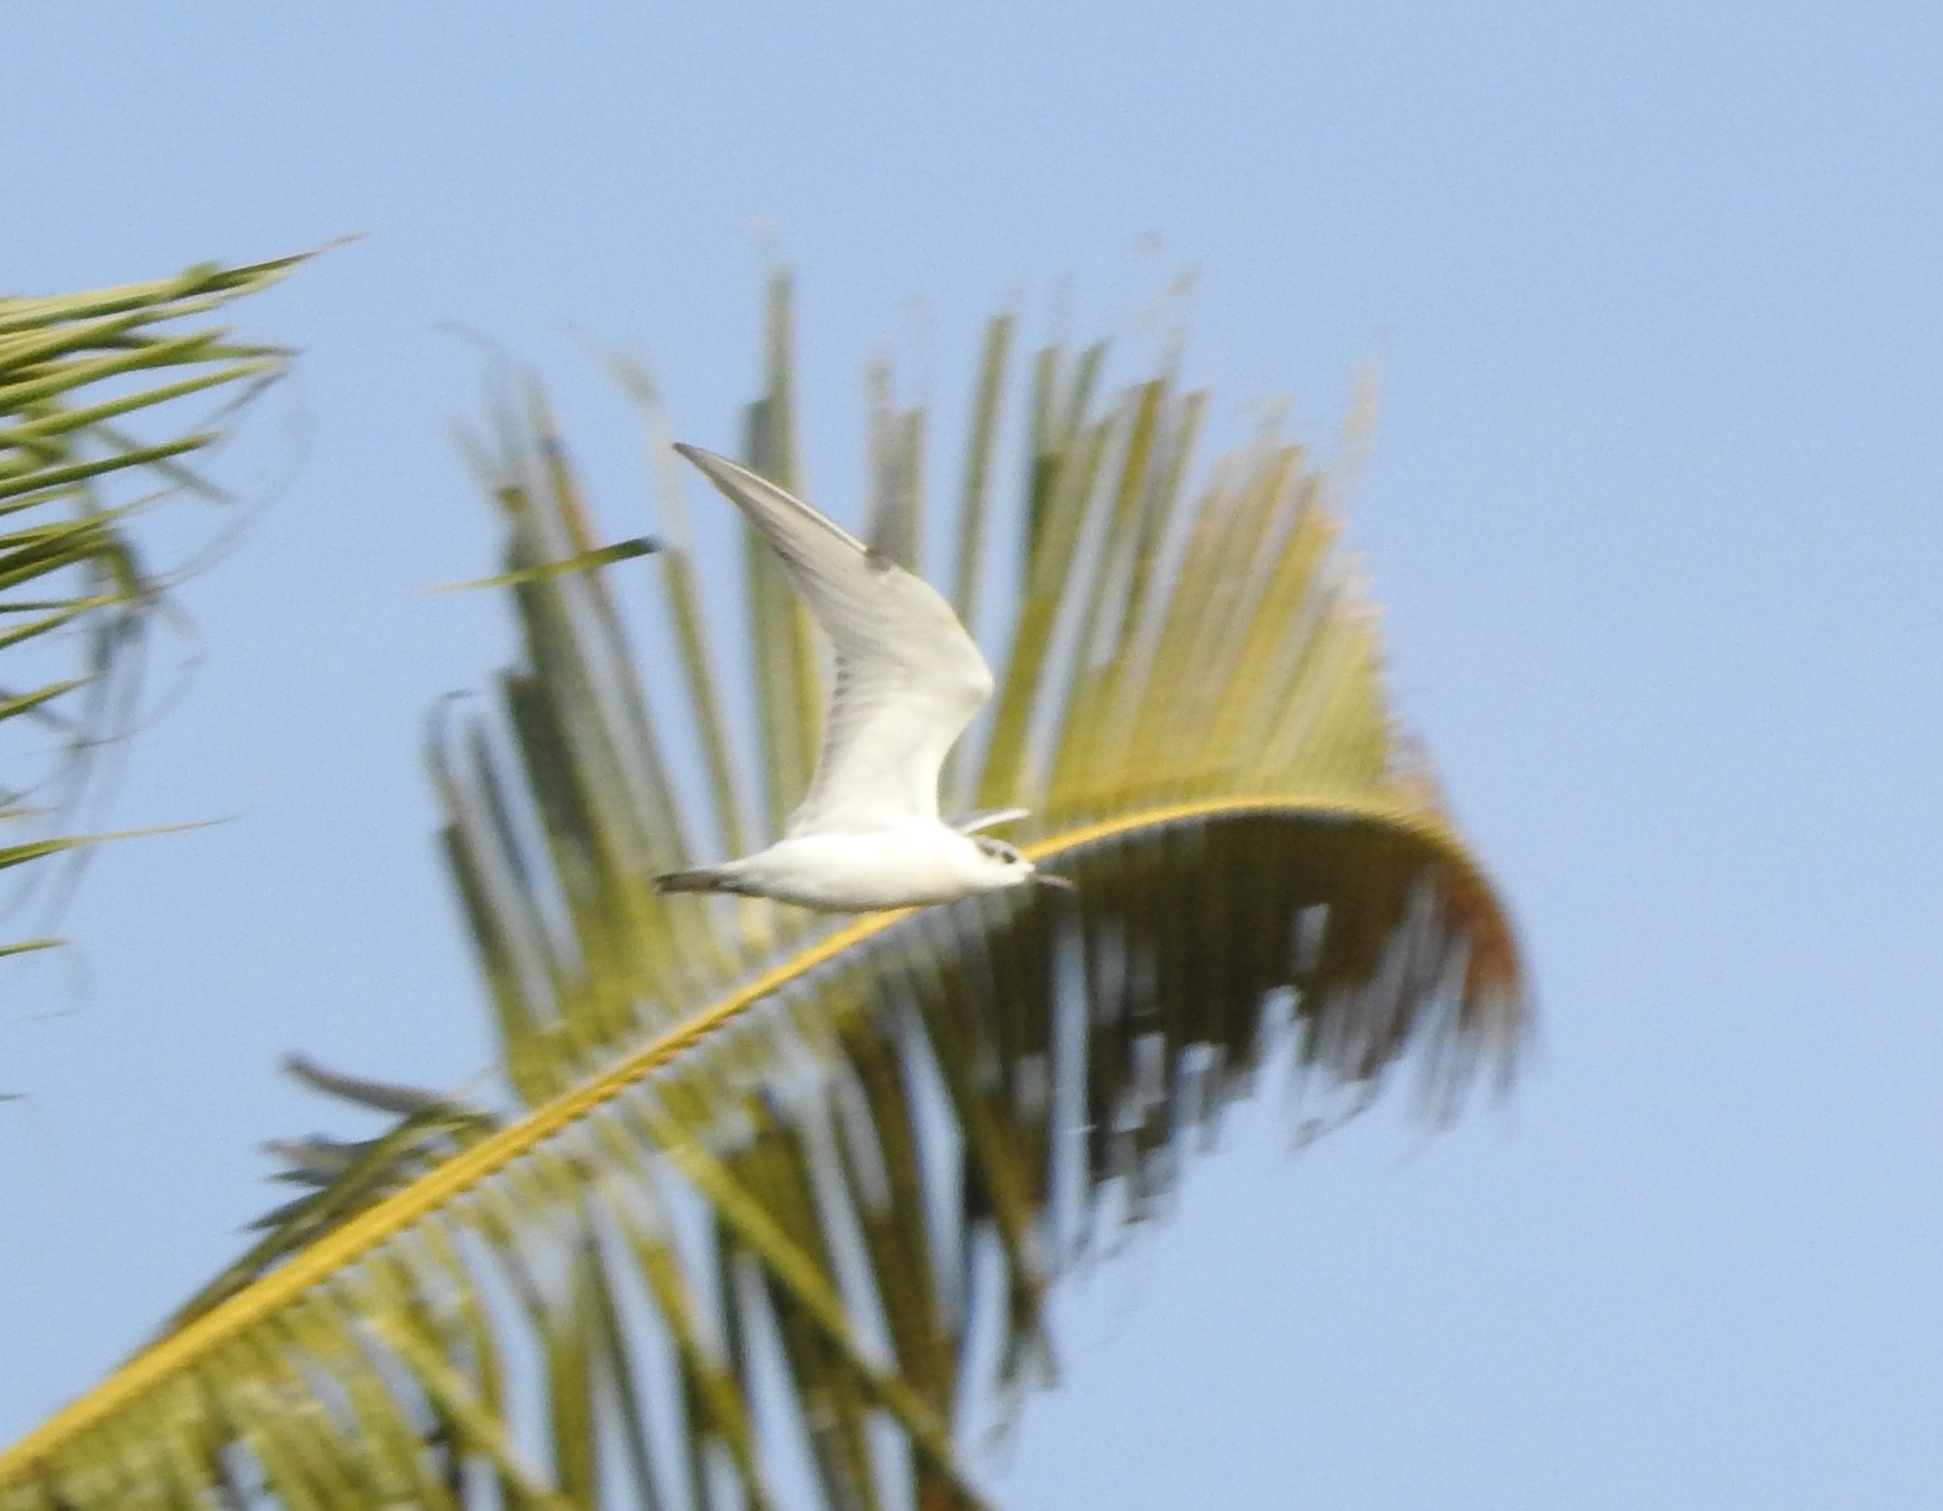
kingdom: Animalia
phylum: Chordata
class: Aves
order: Charadriiformes
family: Laridae
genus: Chlidonias
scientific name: Chlidonias hybrida
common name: Whiskered tern
